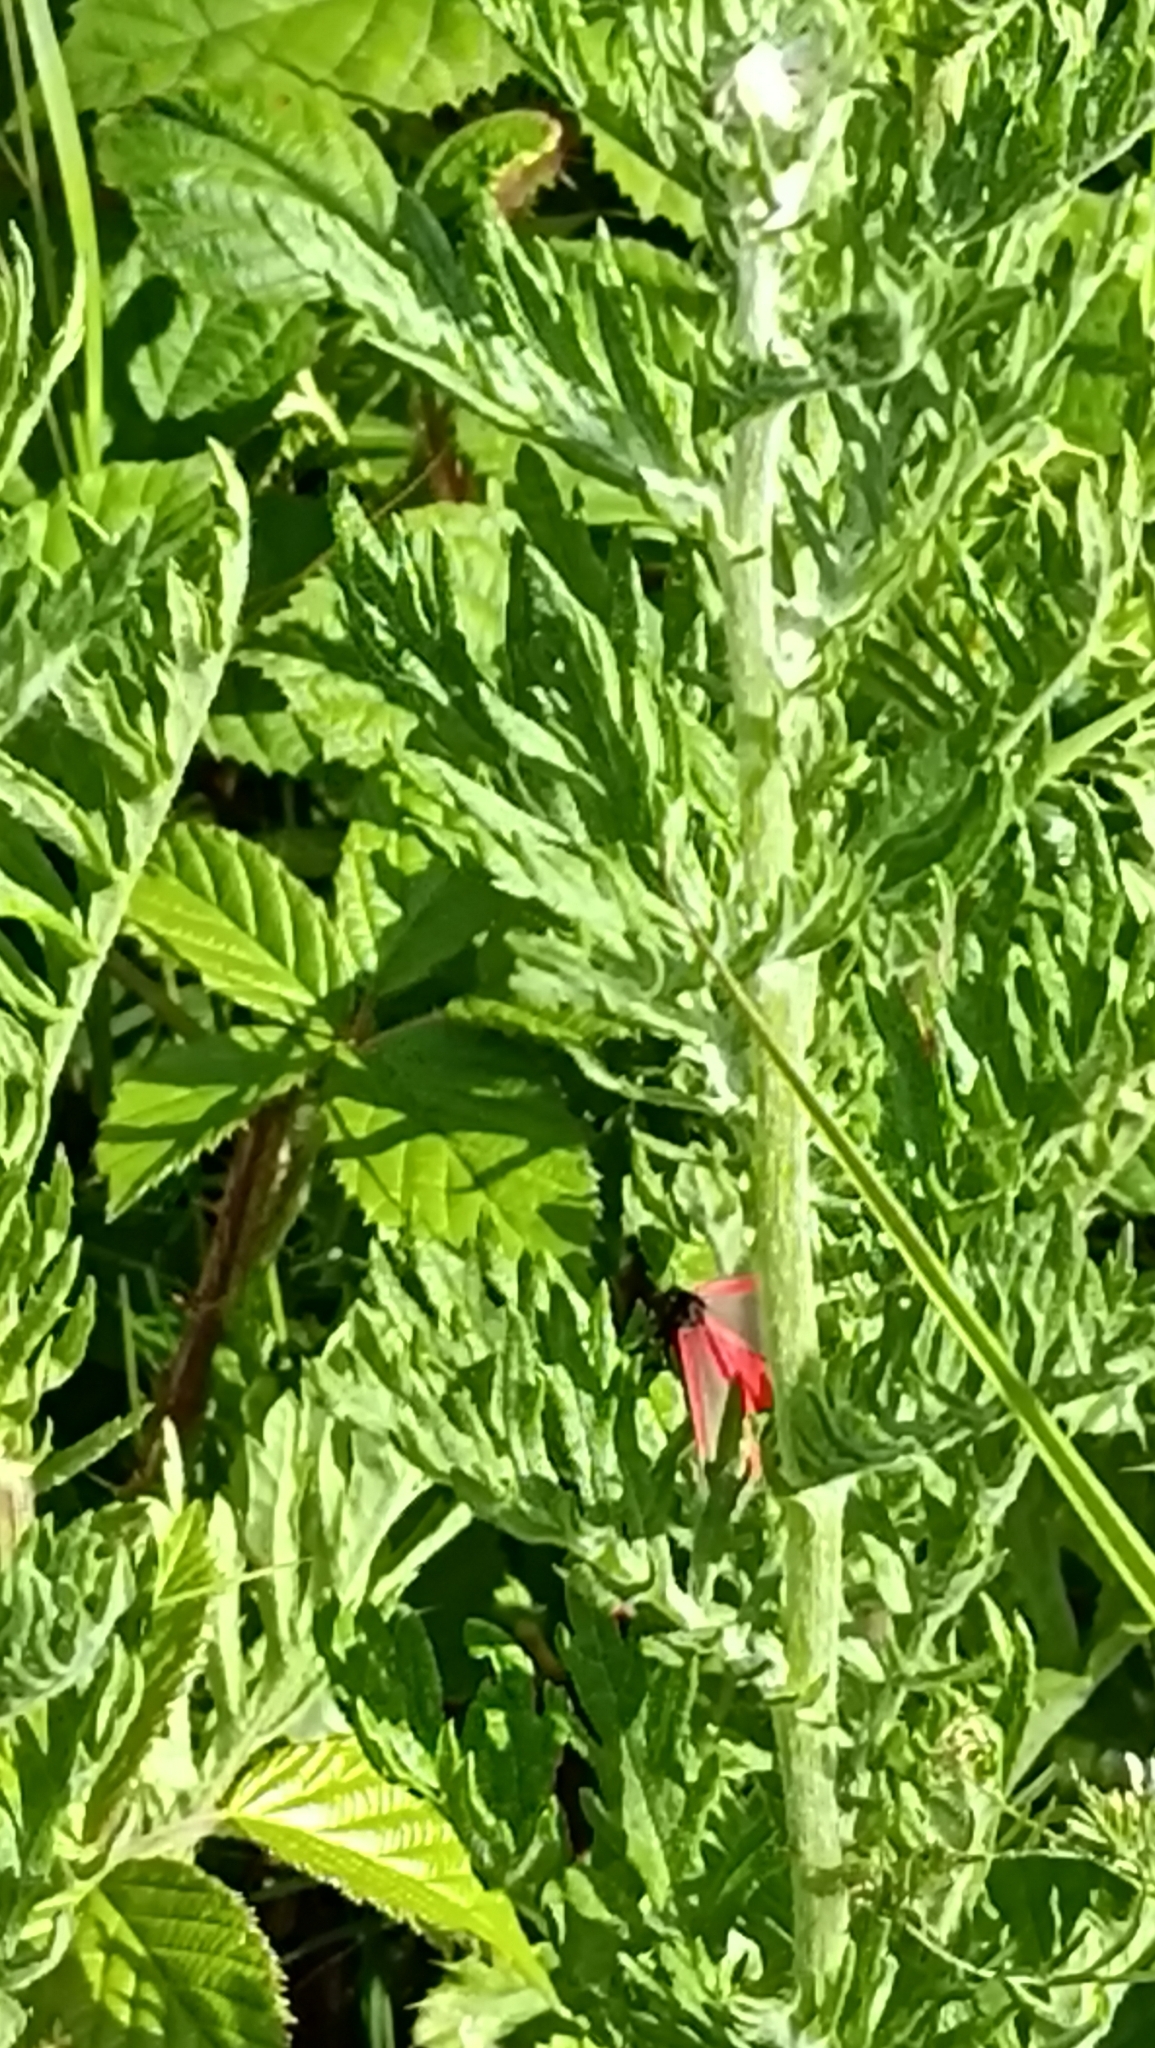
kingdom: Animalia
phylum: Arthropoda
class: Insecta
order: Lepidoptera
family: Erebidae
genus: Tyria
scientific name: Tyria jacobaeae
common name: Cinnabar
